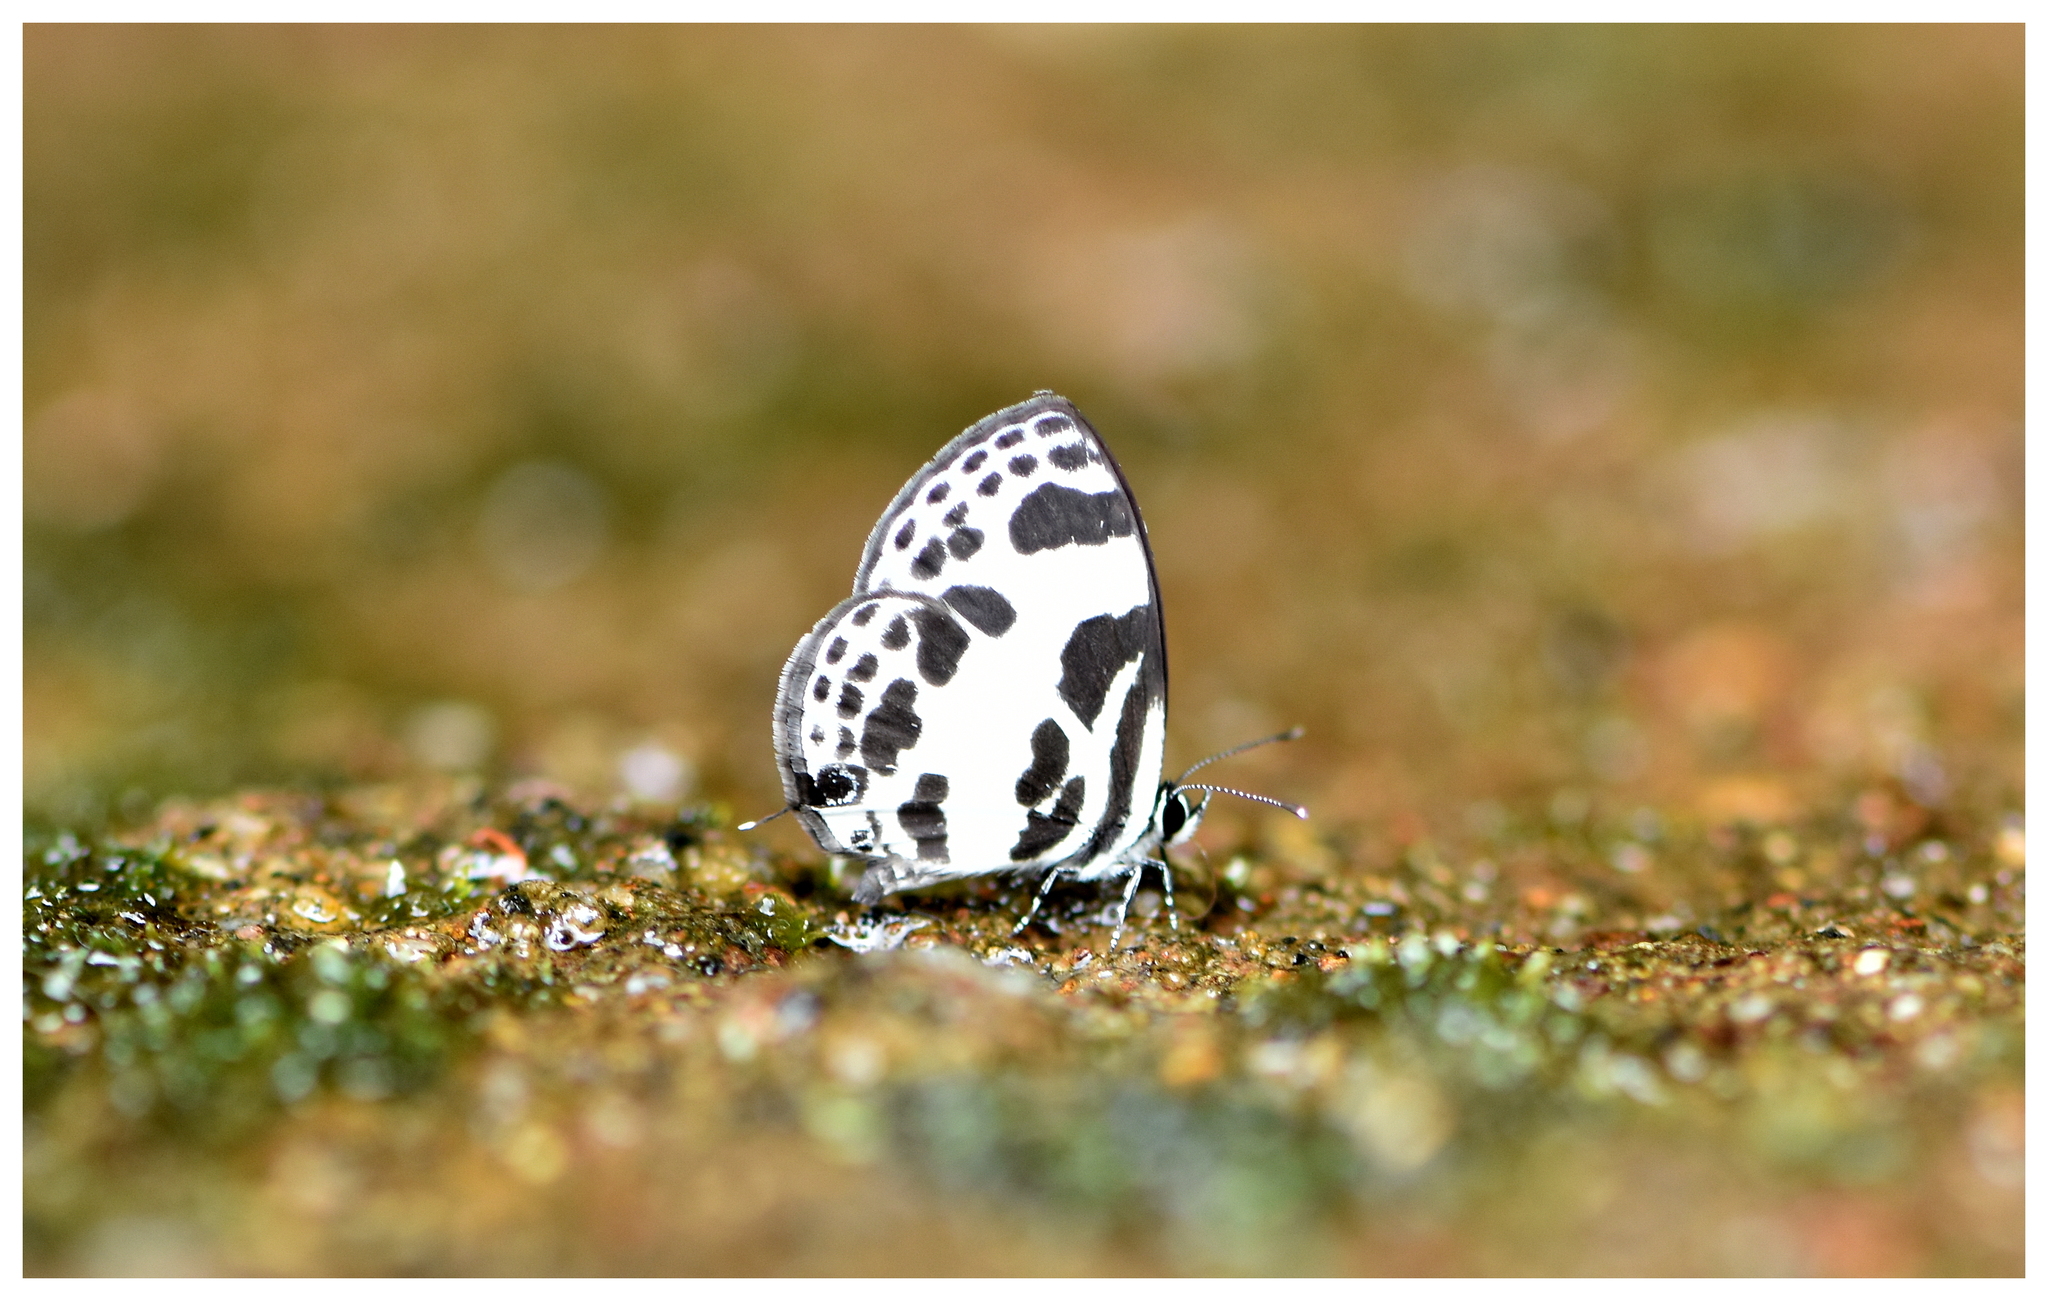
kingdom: Animalia
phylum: Arthropoda
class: Insecta
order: Lepidoptera
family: Lycaenidae
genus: Discolampa
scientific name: Discolampa ethion
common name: Banded blue pierrot
